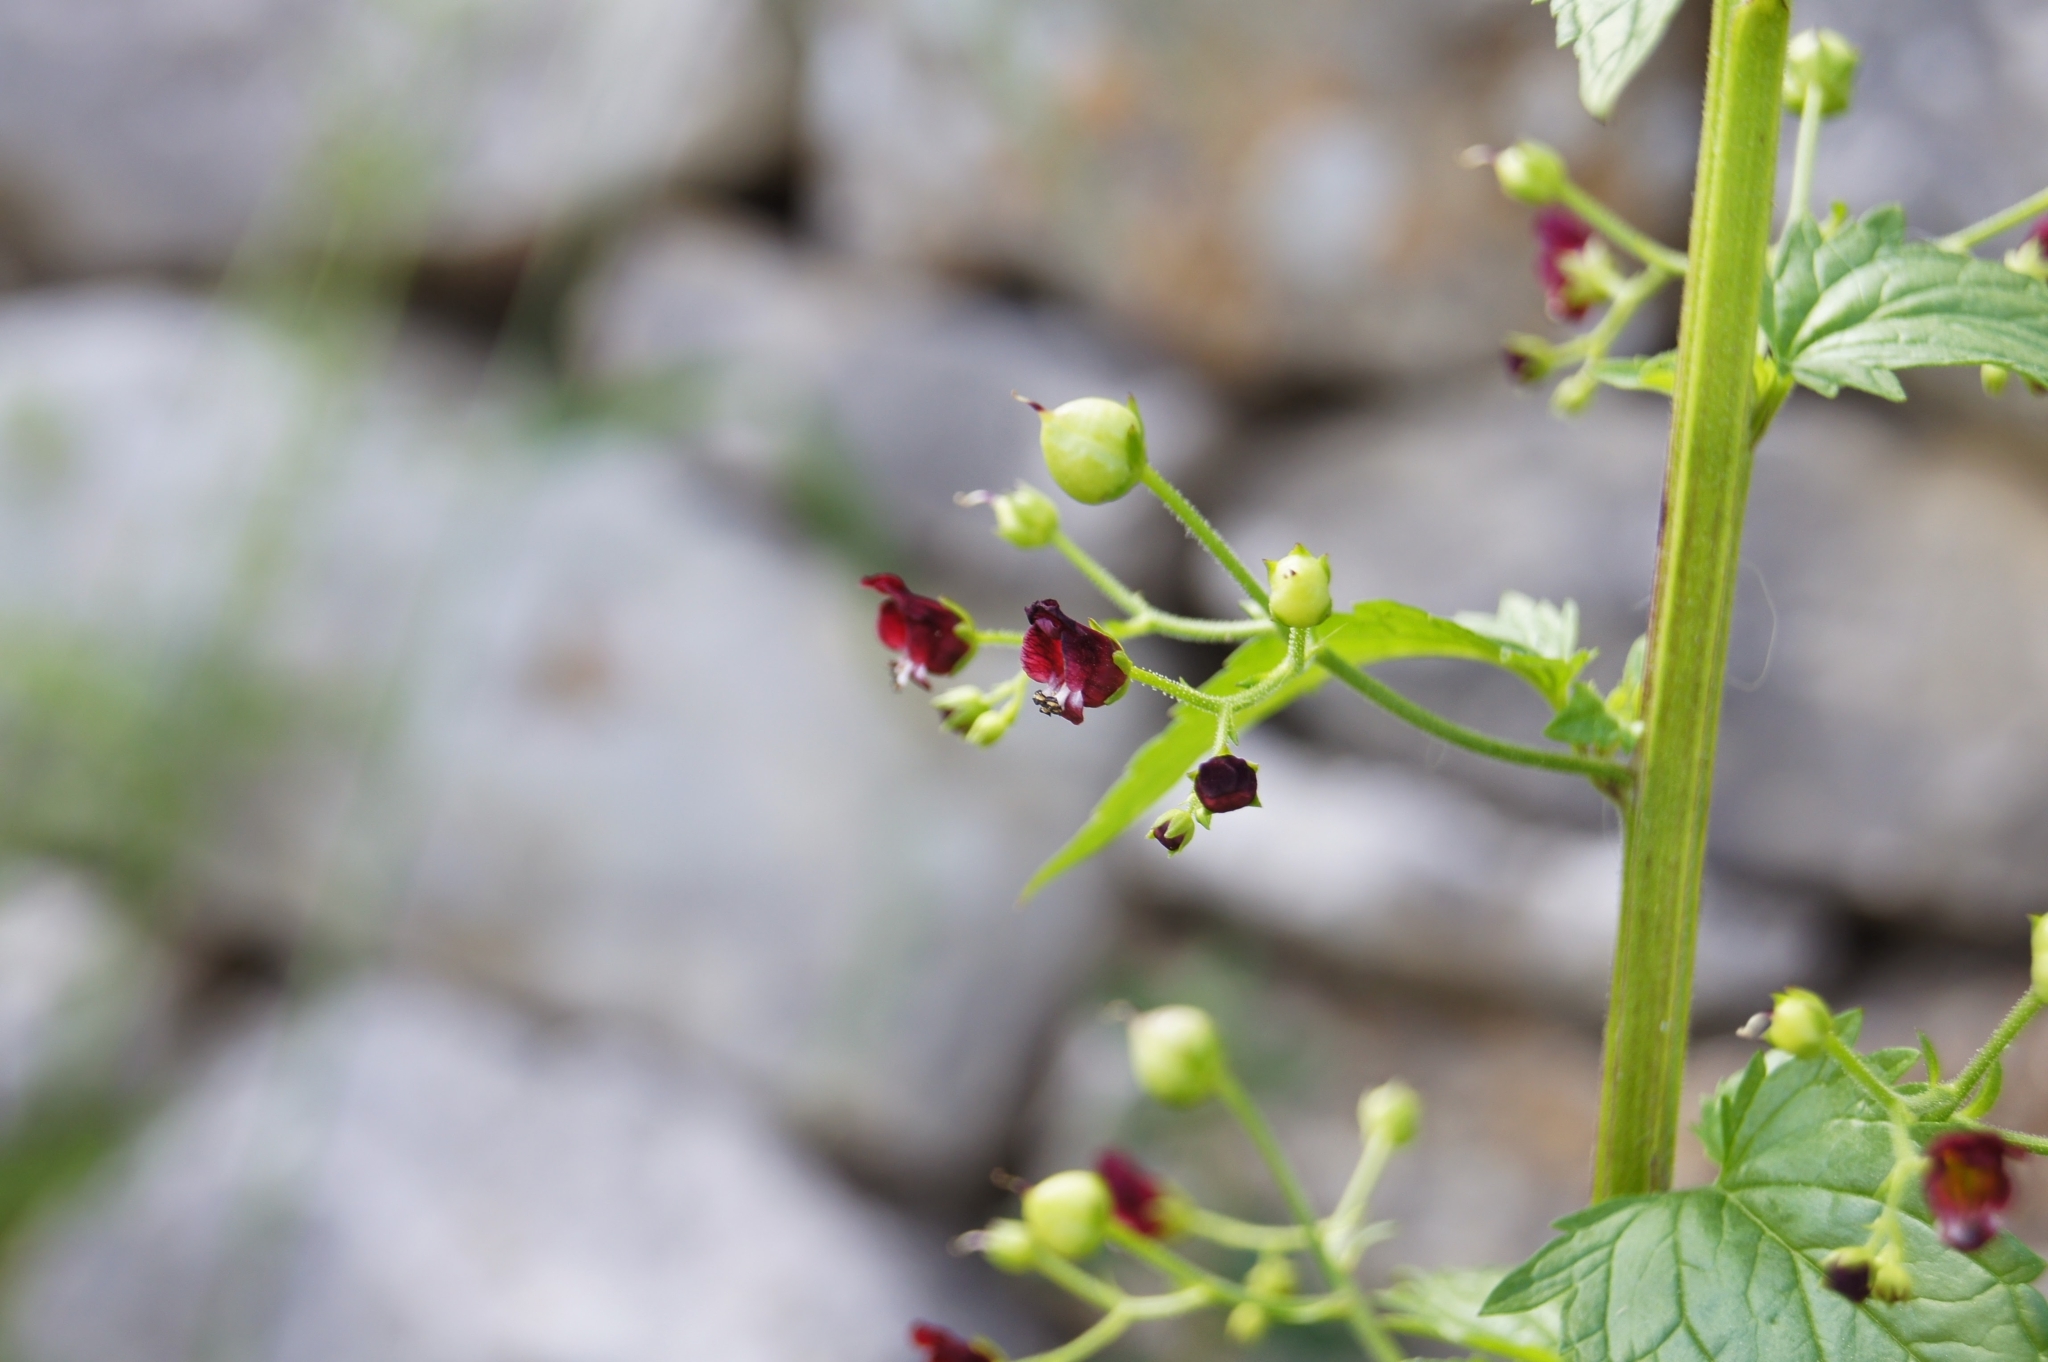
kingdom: Plantae
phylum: Tracheophyta
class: Magnoliopsida
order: Lamiales
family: Scrophulariaceae
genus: Scrophularia
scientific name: Scrophularia peregrina
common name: Mediterranean figwort
